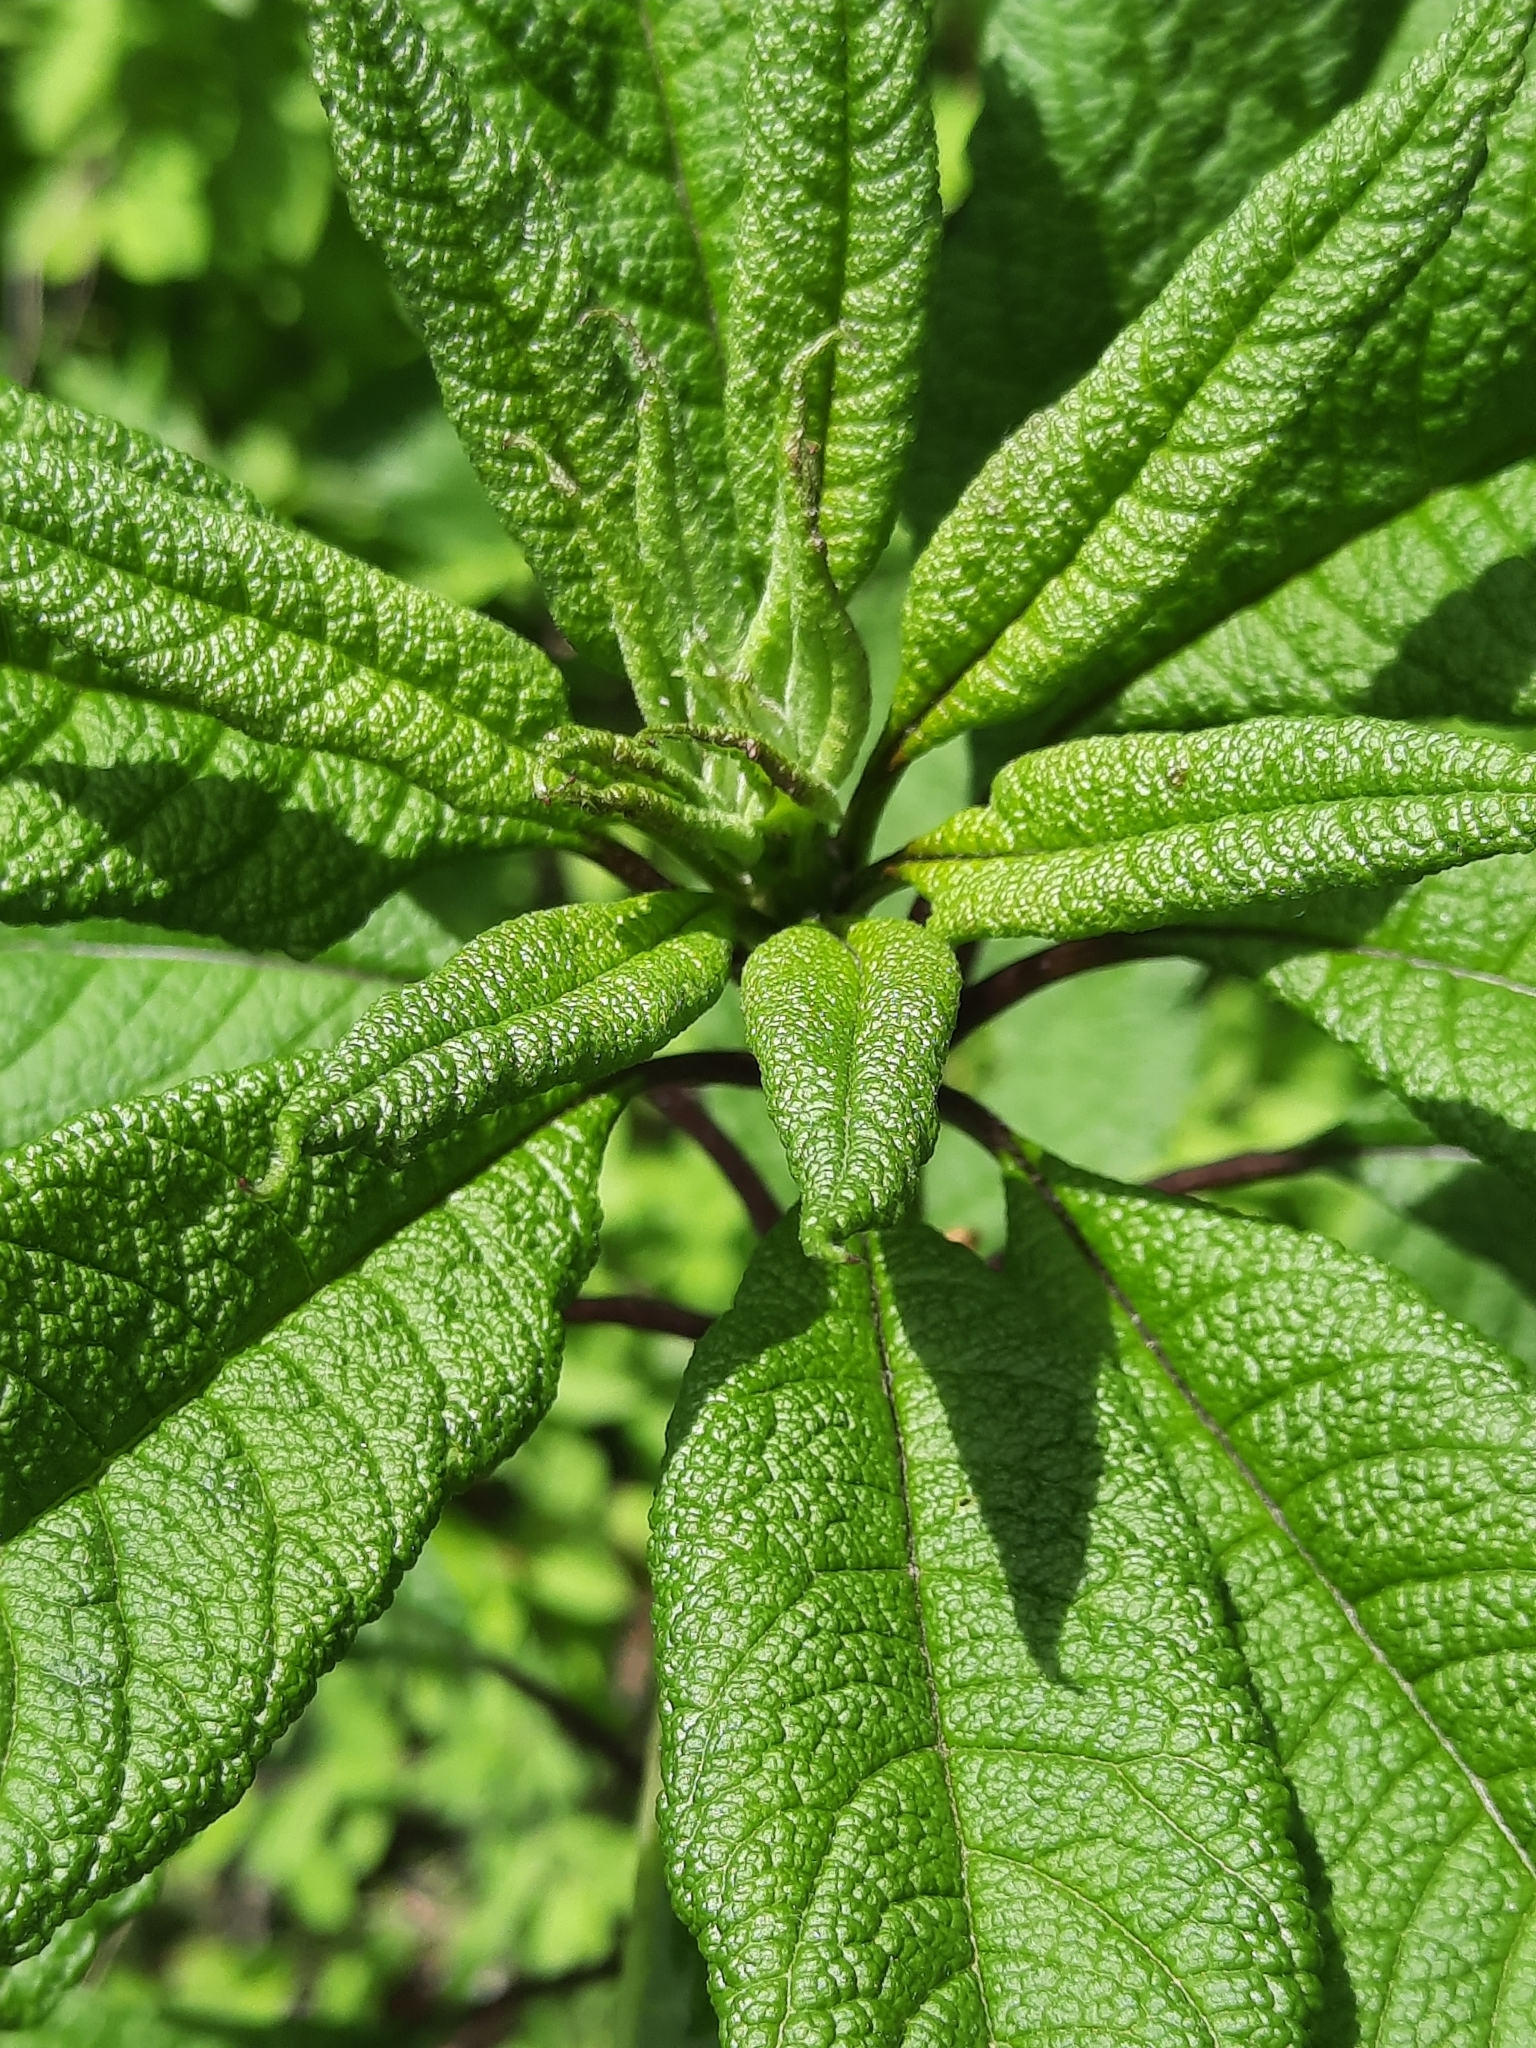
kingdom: Plantae
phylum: Tracheophyta
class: Magnoliopsida
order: Asterales
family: Asteraceae
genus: Eutrochium
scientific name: Eutrochium fistulosum
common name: Trumpetweed
